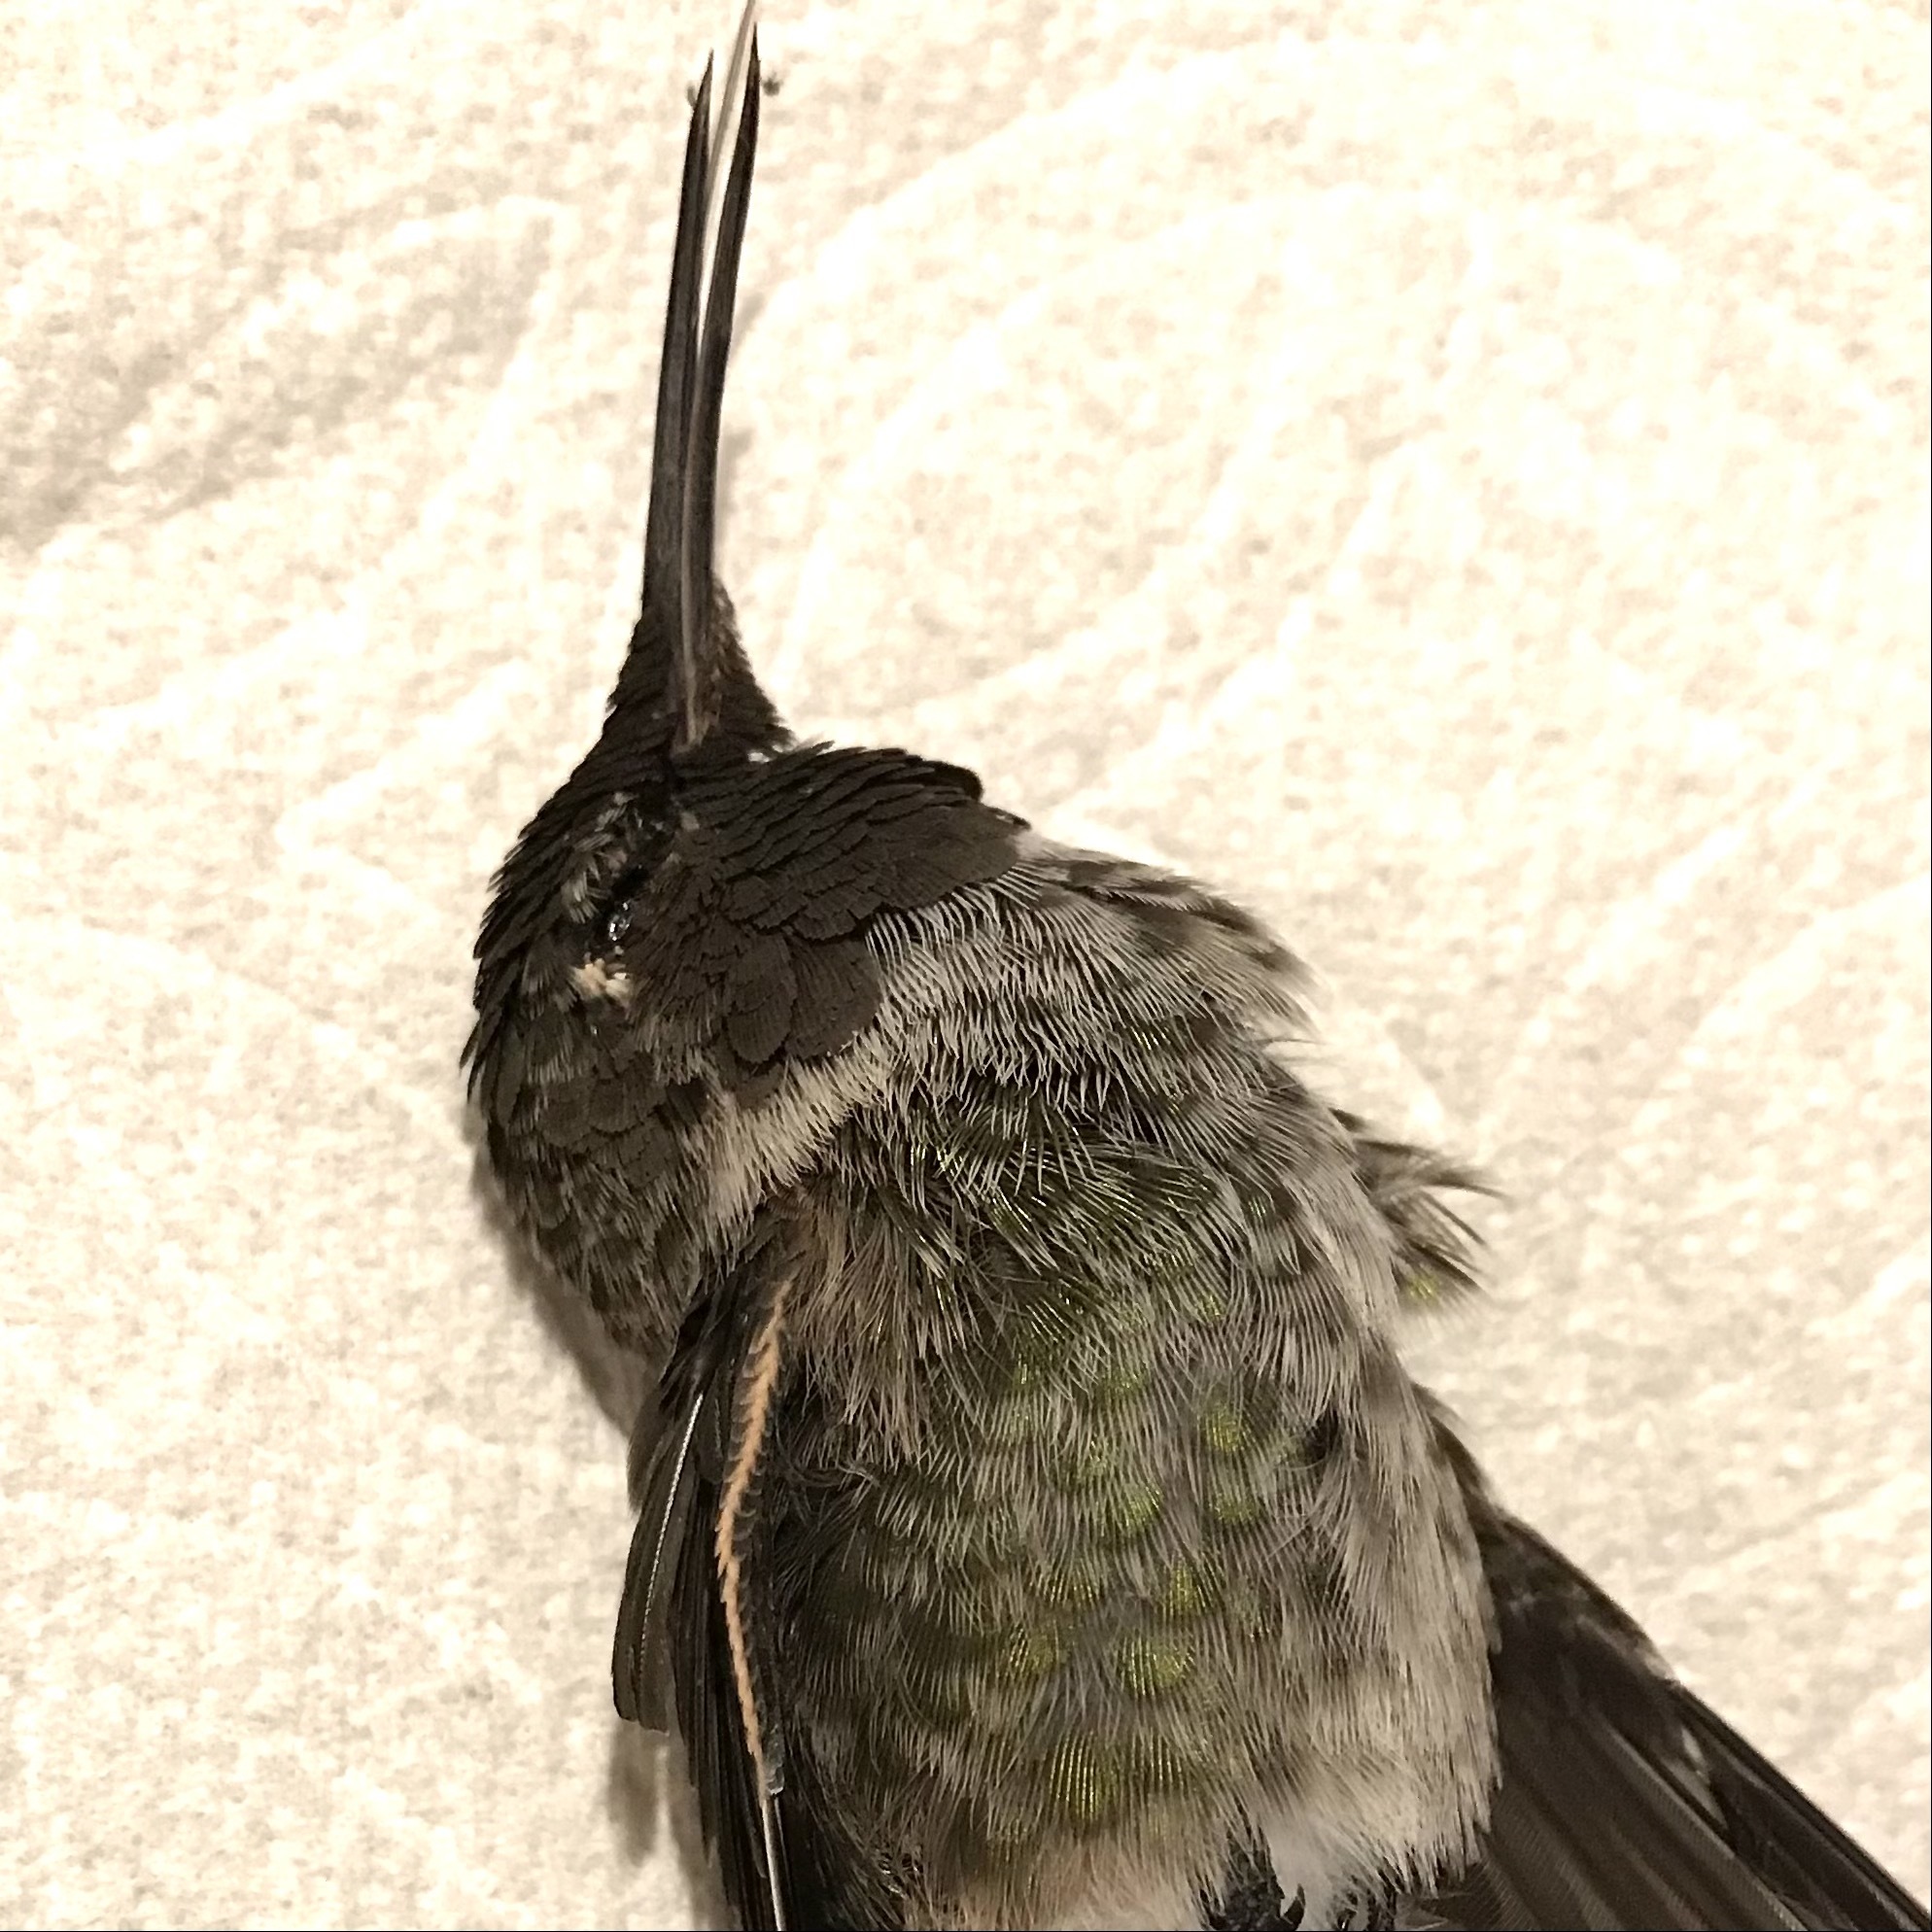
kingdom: Animalia
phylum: Chordata
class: Aves
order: Apodiformes
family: Trochilidae
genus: Calypte
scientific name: Calypte anna
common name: Anna's hummingbird
